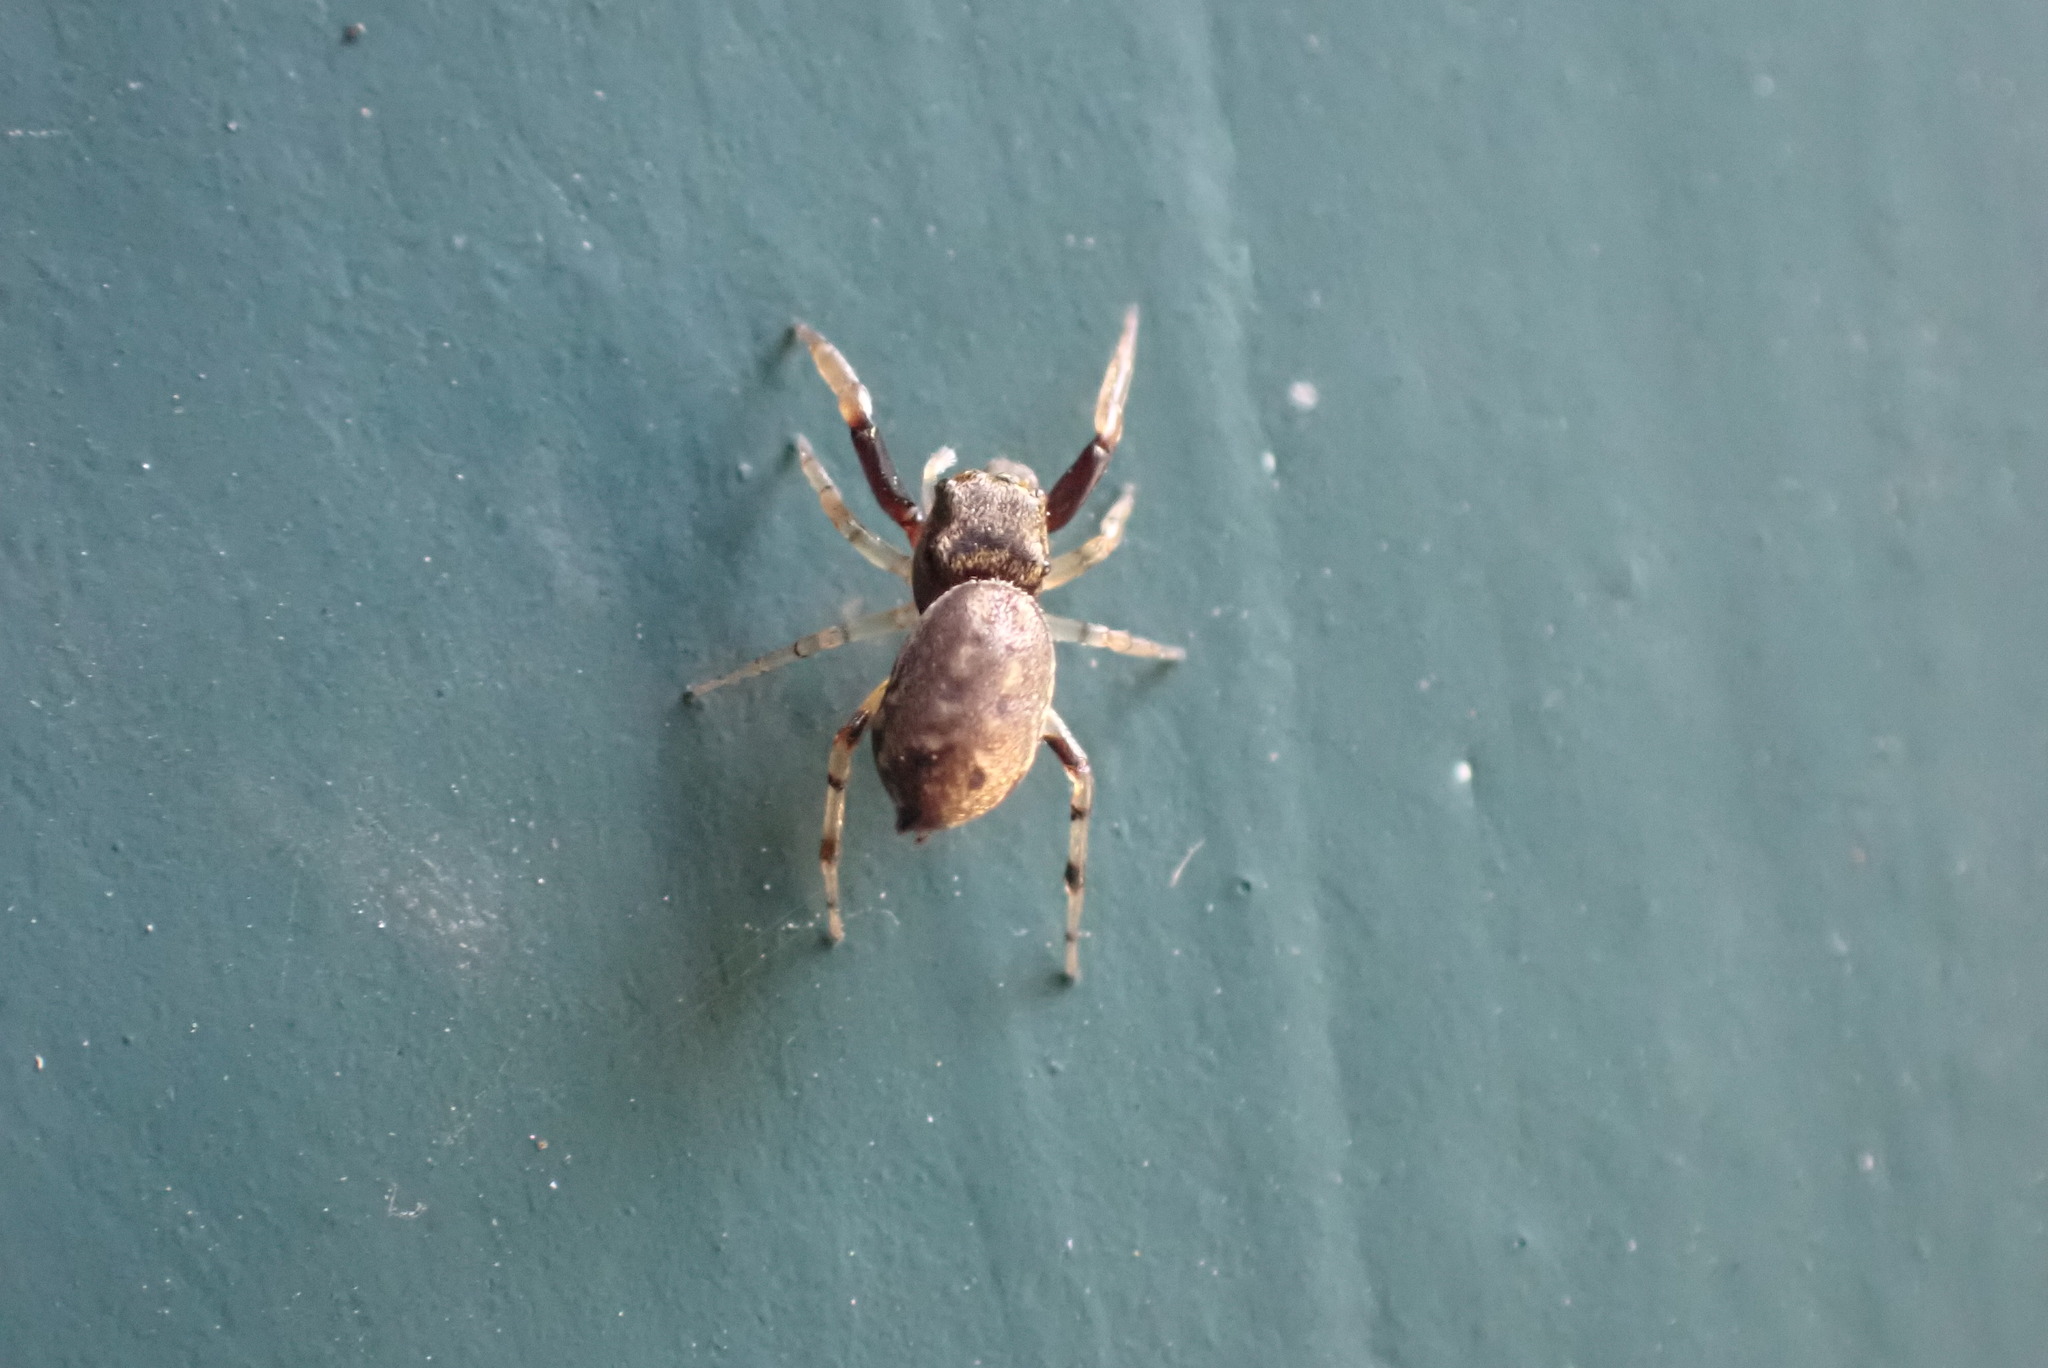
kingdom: Animalia
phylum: Arthropoda
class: Arachnida
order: Araneae
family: Salticidae
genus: Zygoballus
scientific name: Zygoballus rufipes
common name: Jumping spiders
